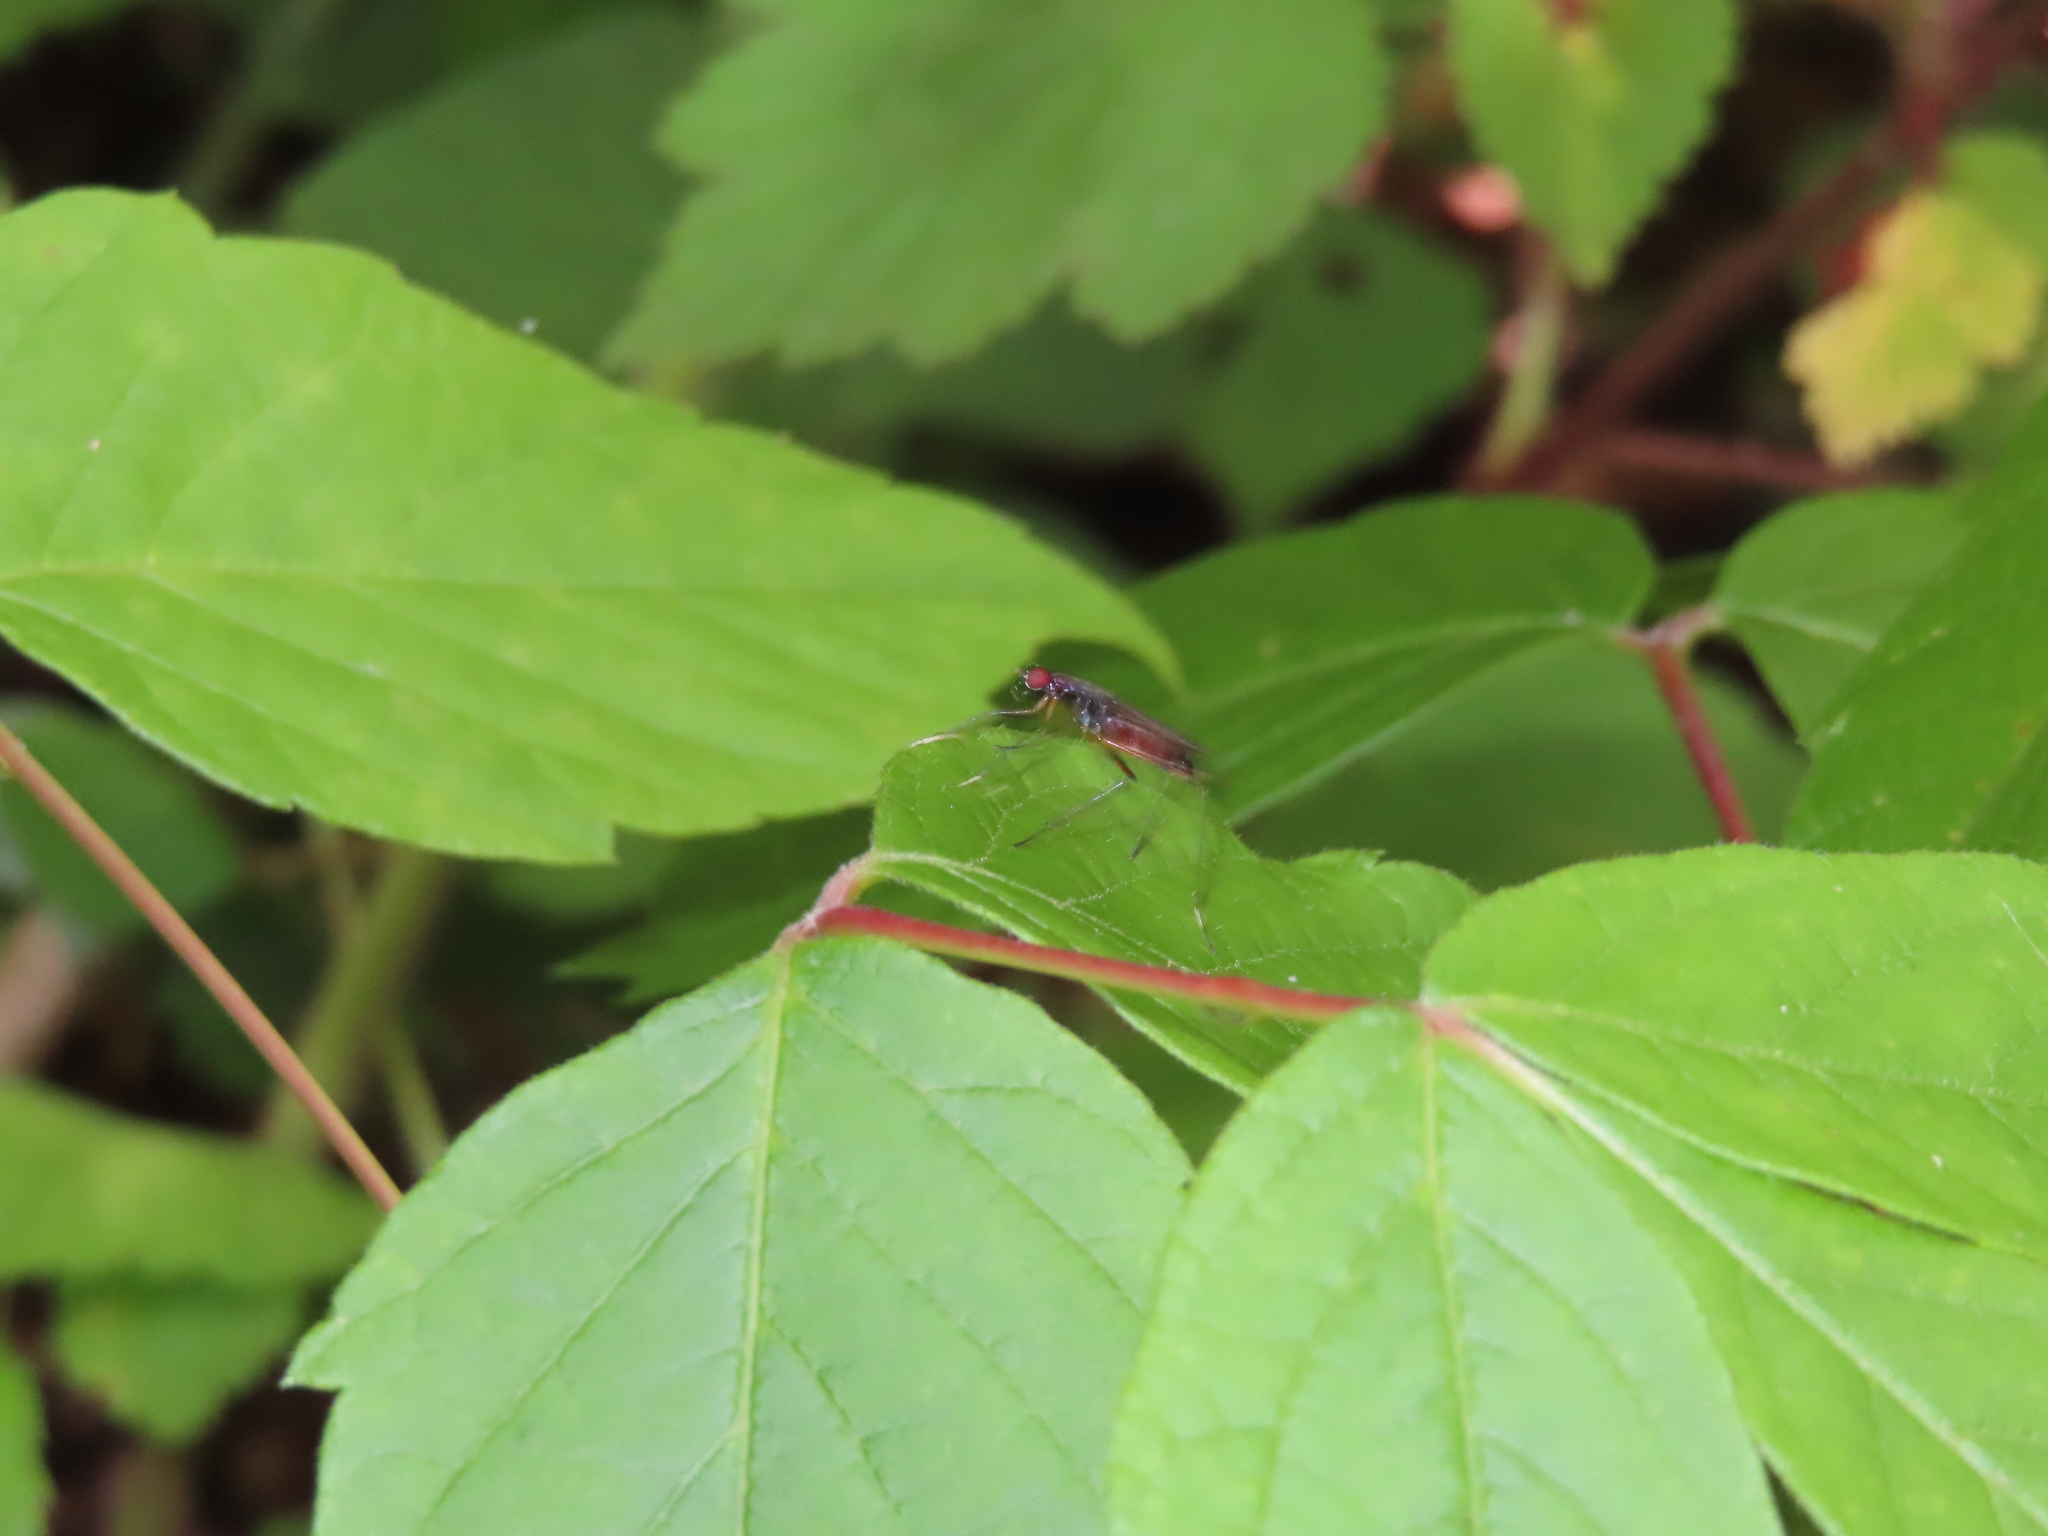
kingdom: Animalia
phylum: Arthropoda
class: Insecta
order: Diptera
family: Micropezidae
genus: Rainieria
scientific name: Rainieria antennaepes
